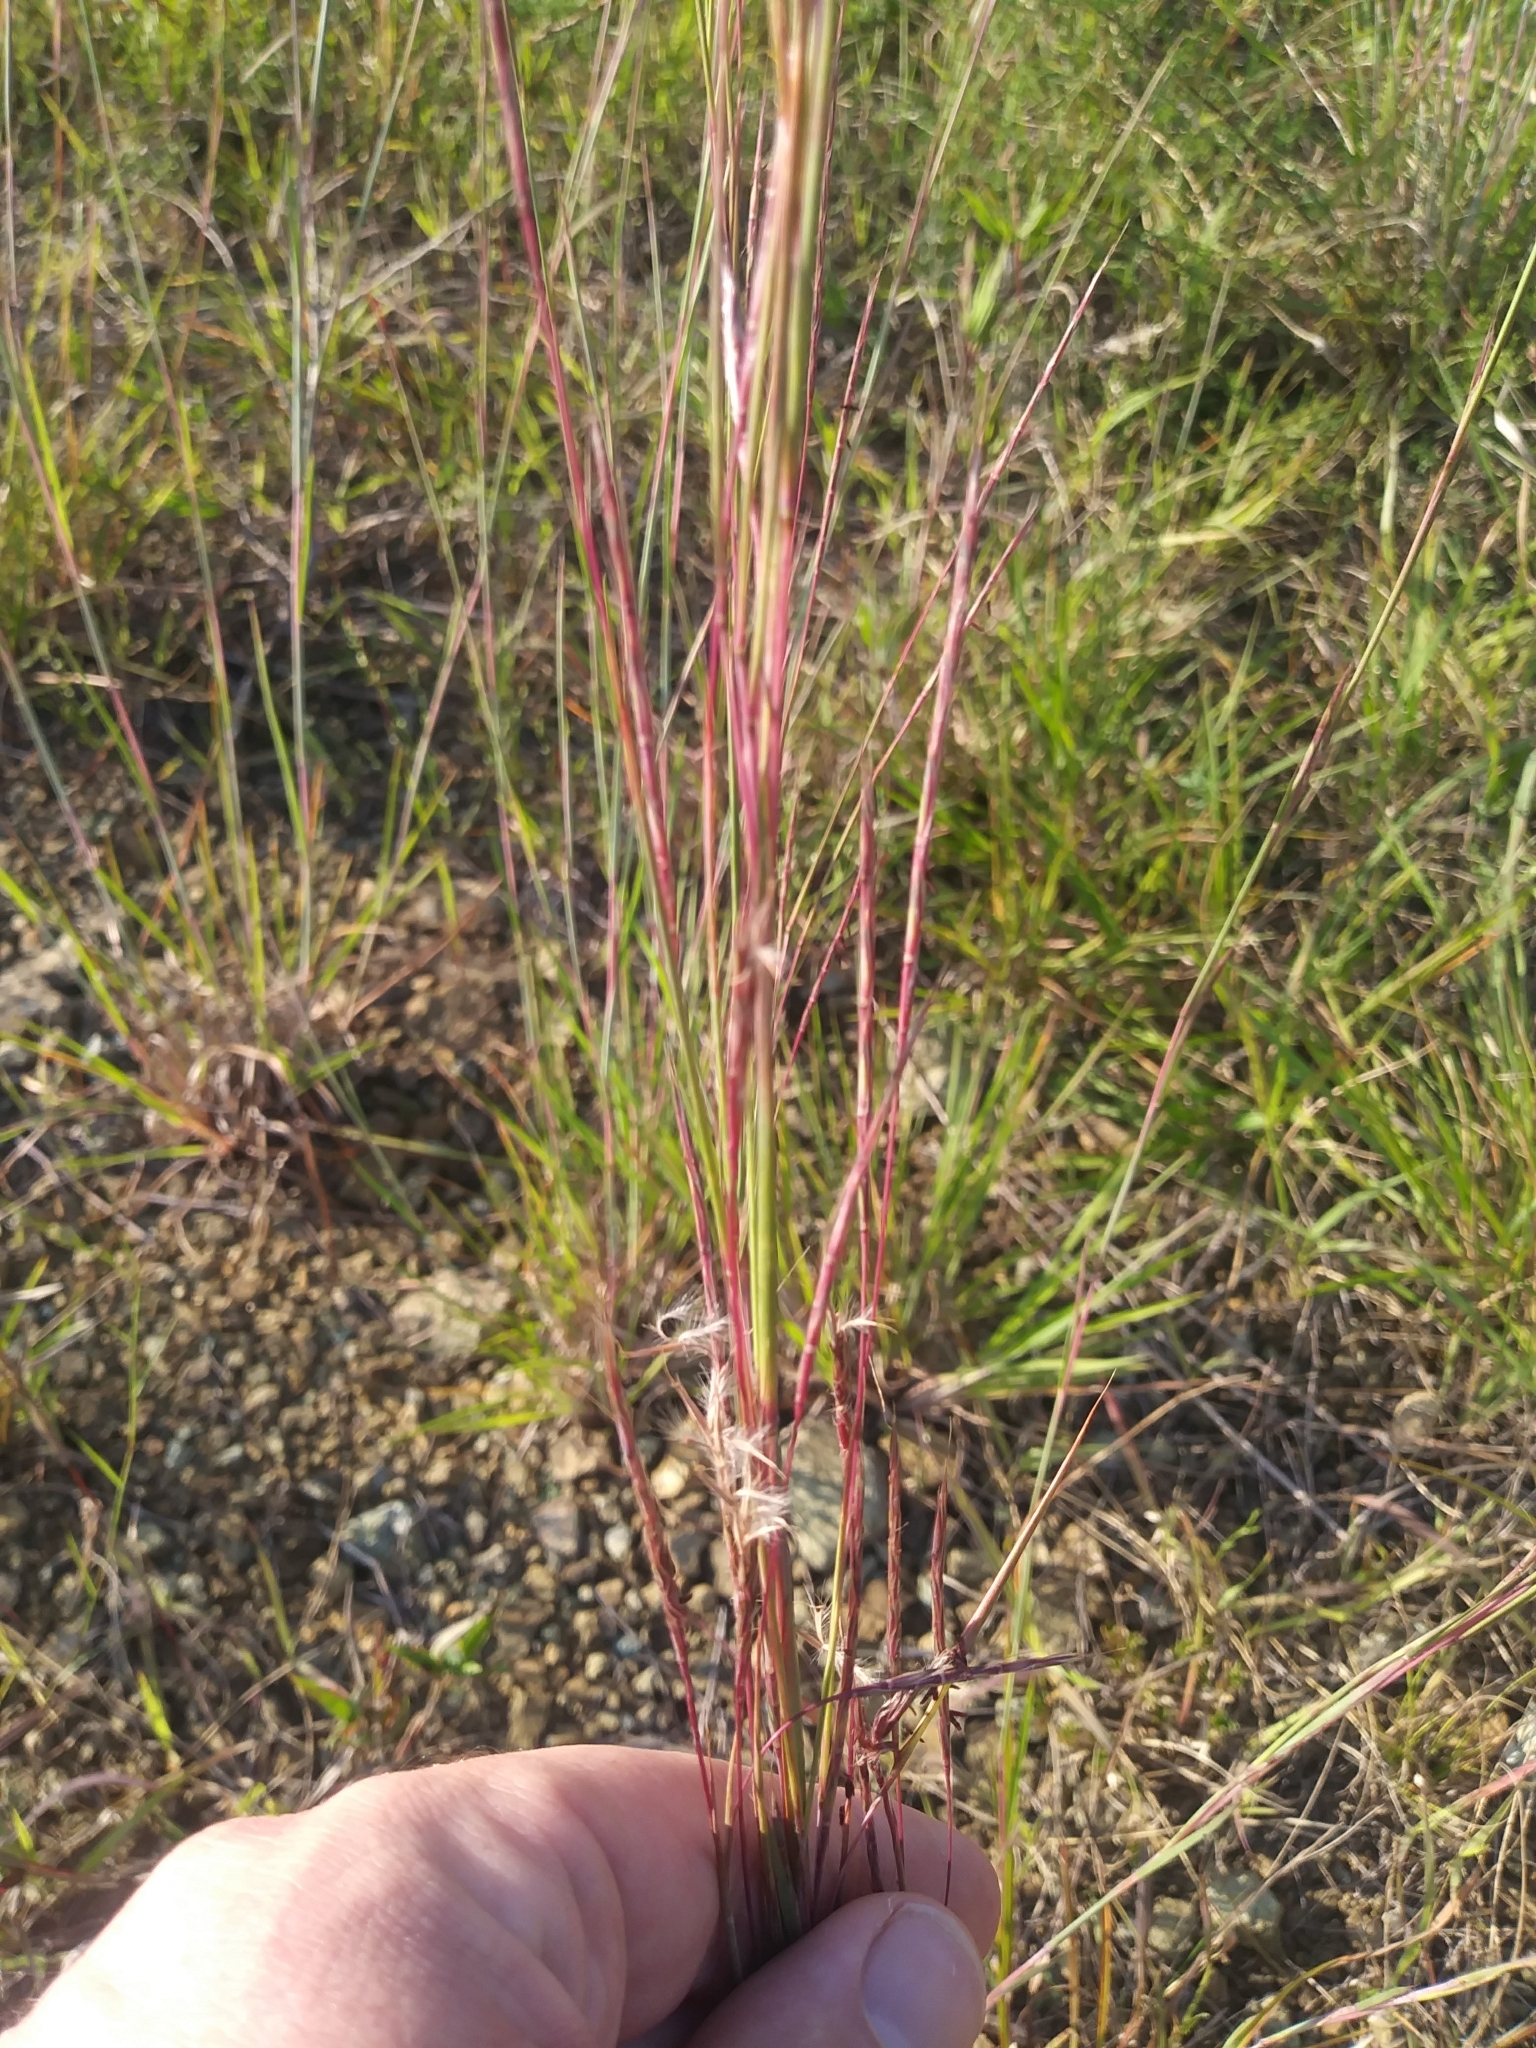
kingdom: Plantae
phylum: Tracheophyta
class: Liliopsida
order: Poales
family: Poaceae
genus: Schizachyrium
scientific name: Schizachyrium scoparium
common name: Little bluestem
